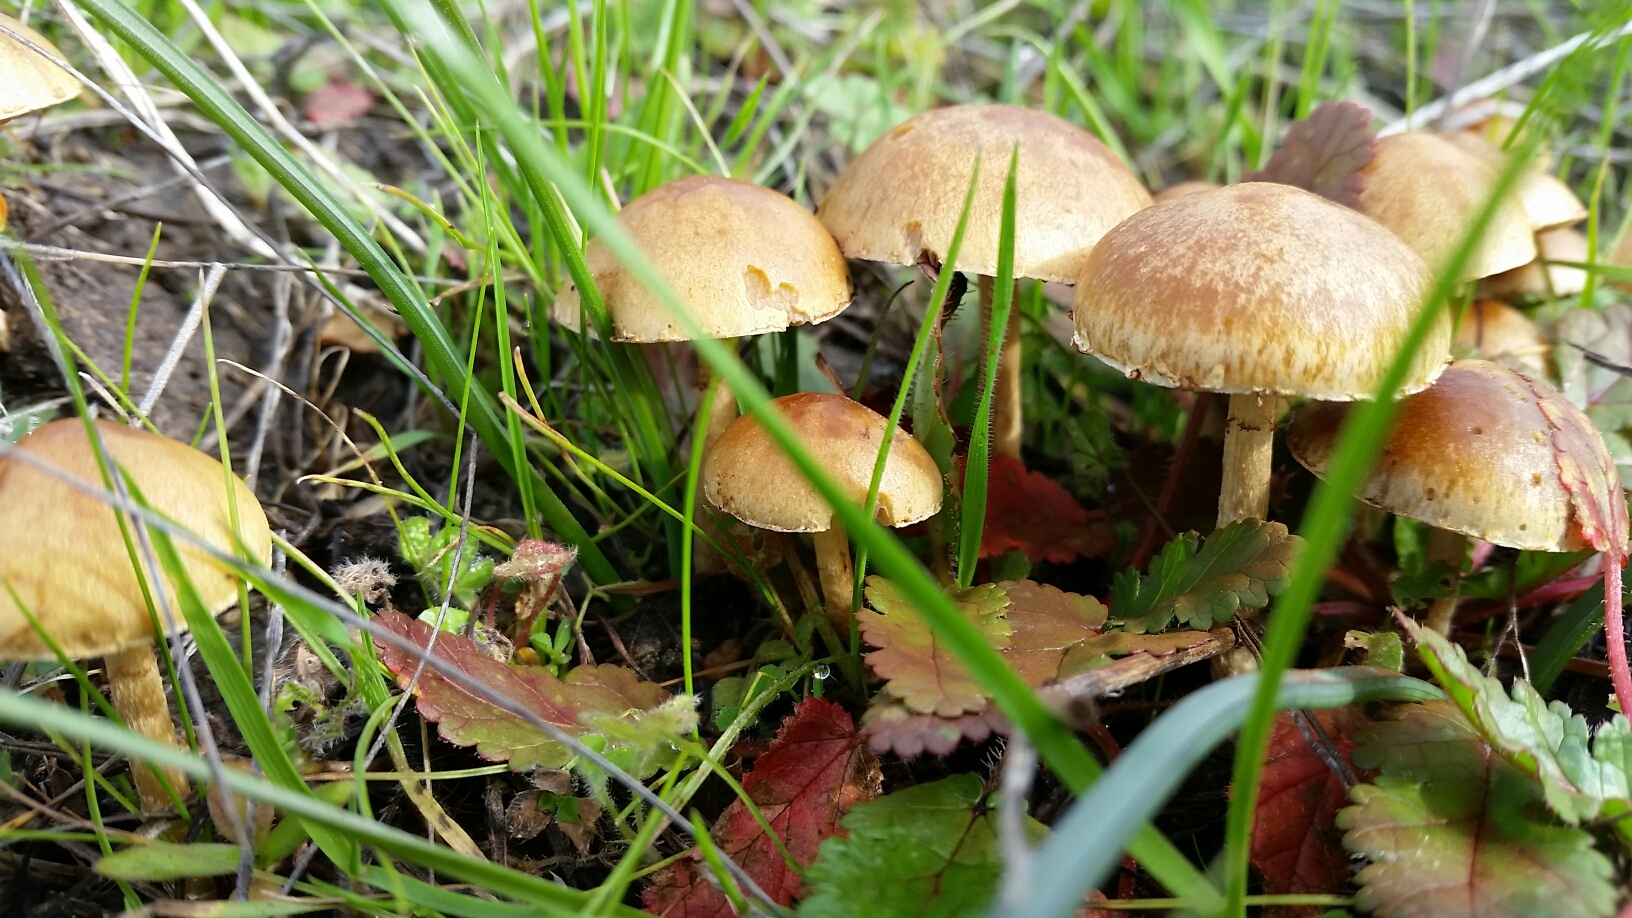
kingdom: Fungi
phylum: Basidiomycota
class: Agaricomycetes
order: Agaricales
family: Strophariaceae
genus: Agrocybe
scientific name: Agrocybe pediades
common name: Common fieldcap
